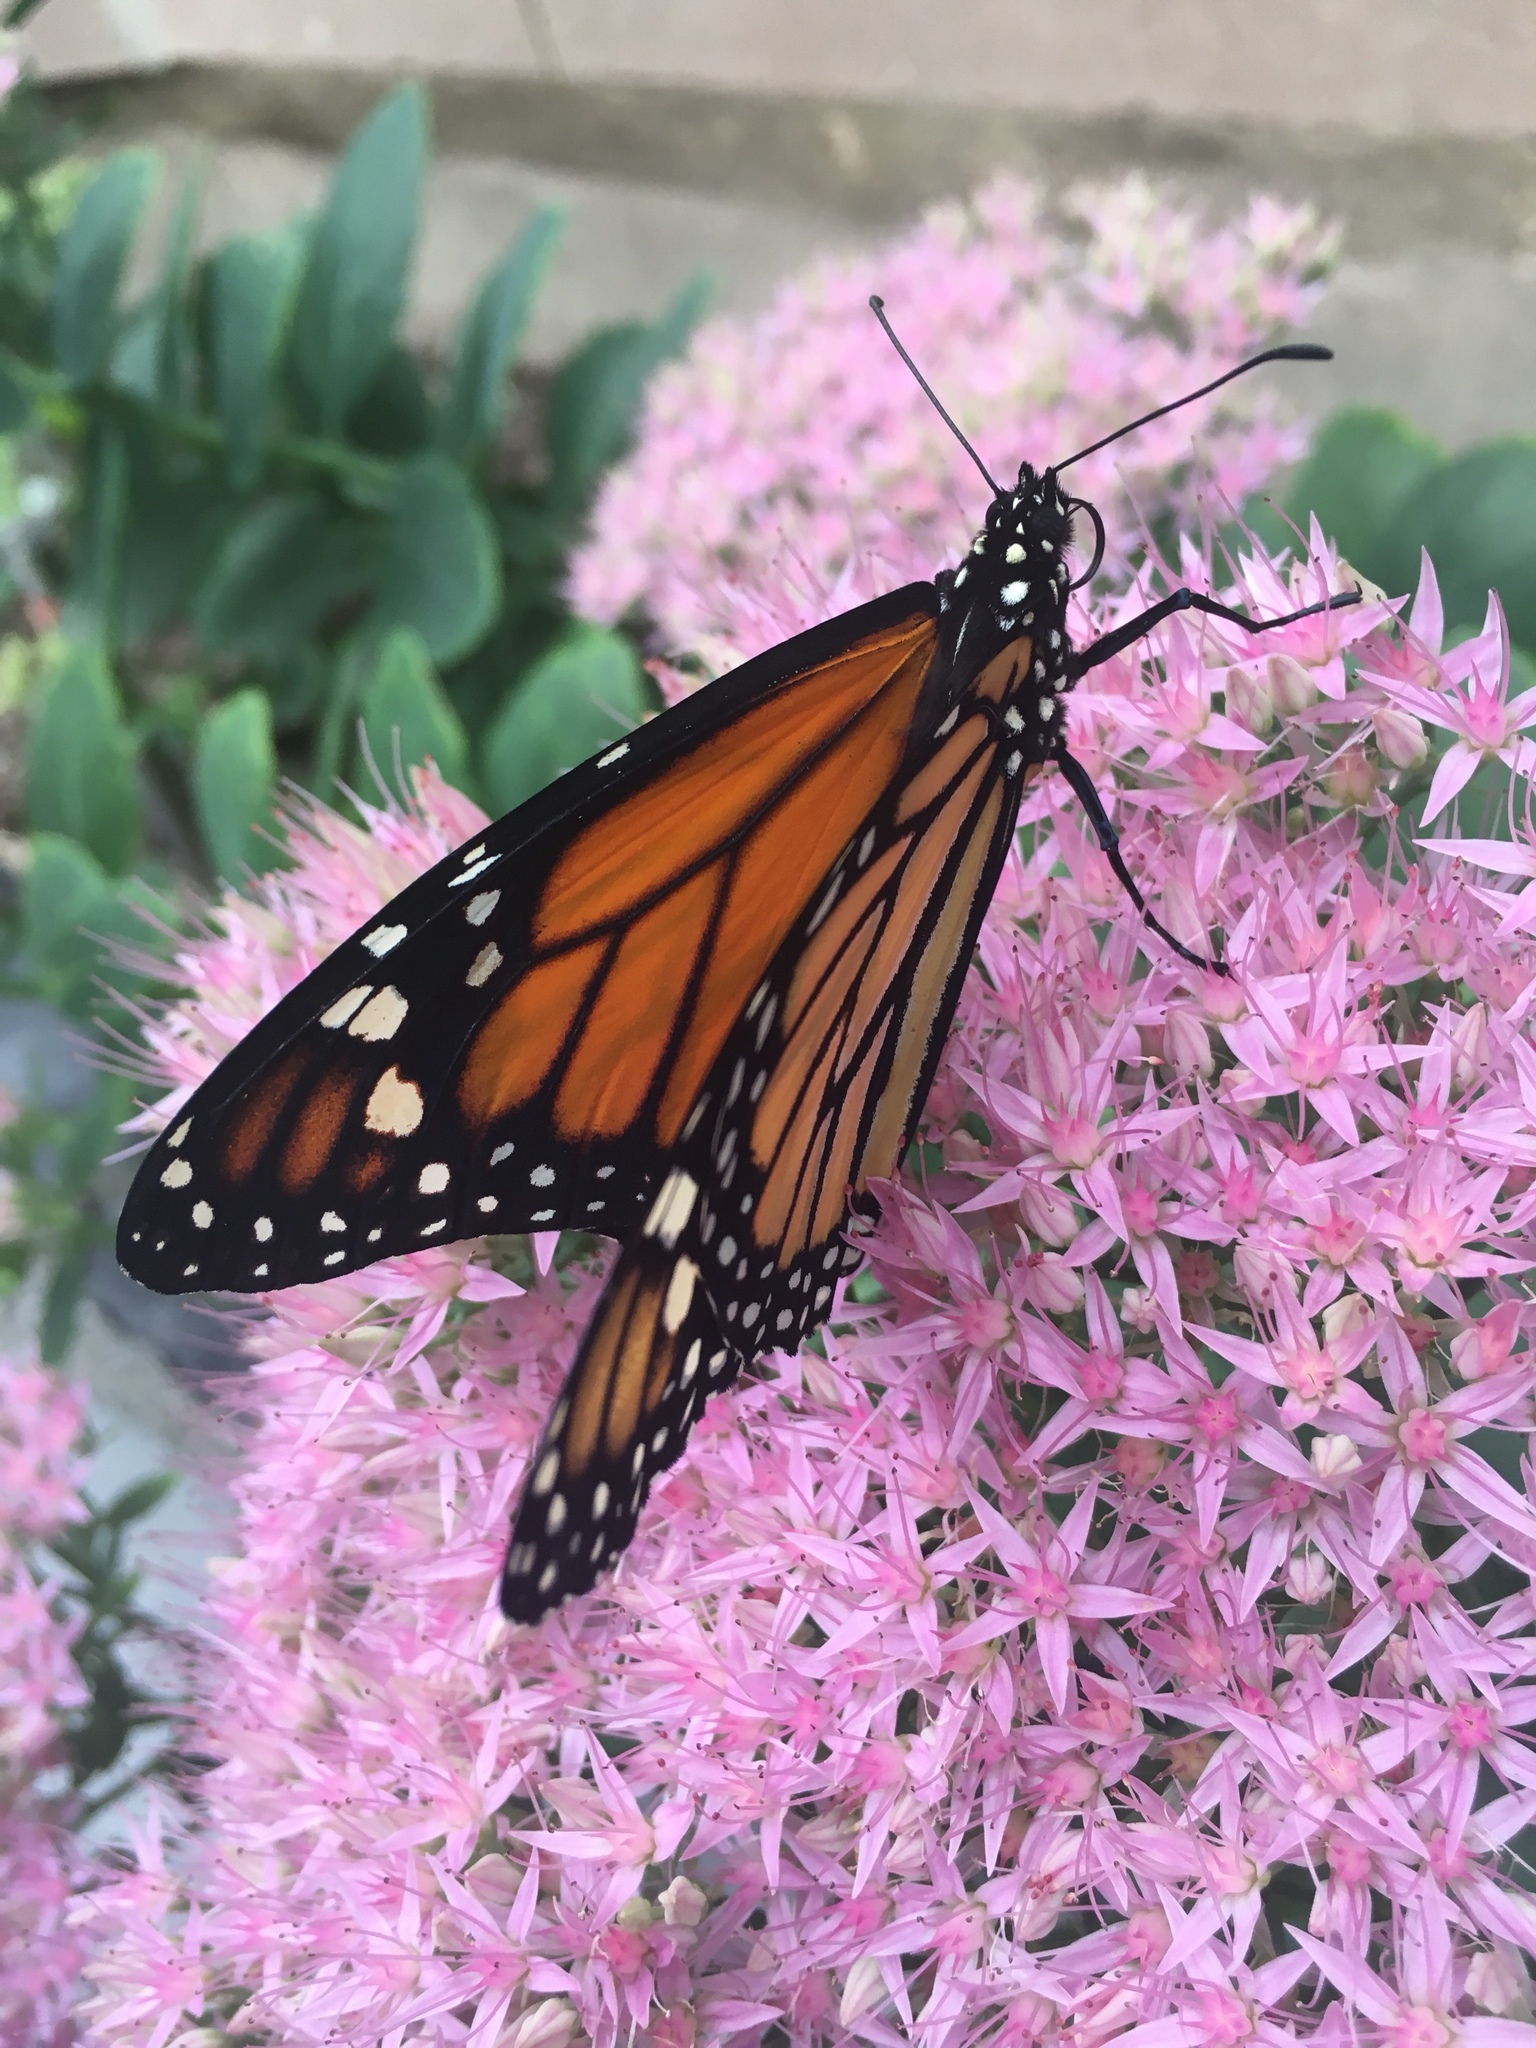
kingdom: Animalia
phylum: Arthropoda
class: Insecta
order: Lepidoptera
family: Nymphalidae
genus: Danaus
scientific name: Danaus plexippus
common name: Monarch
